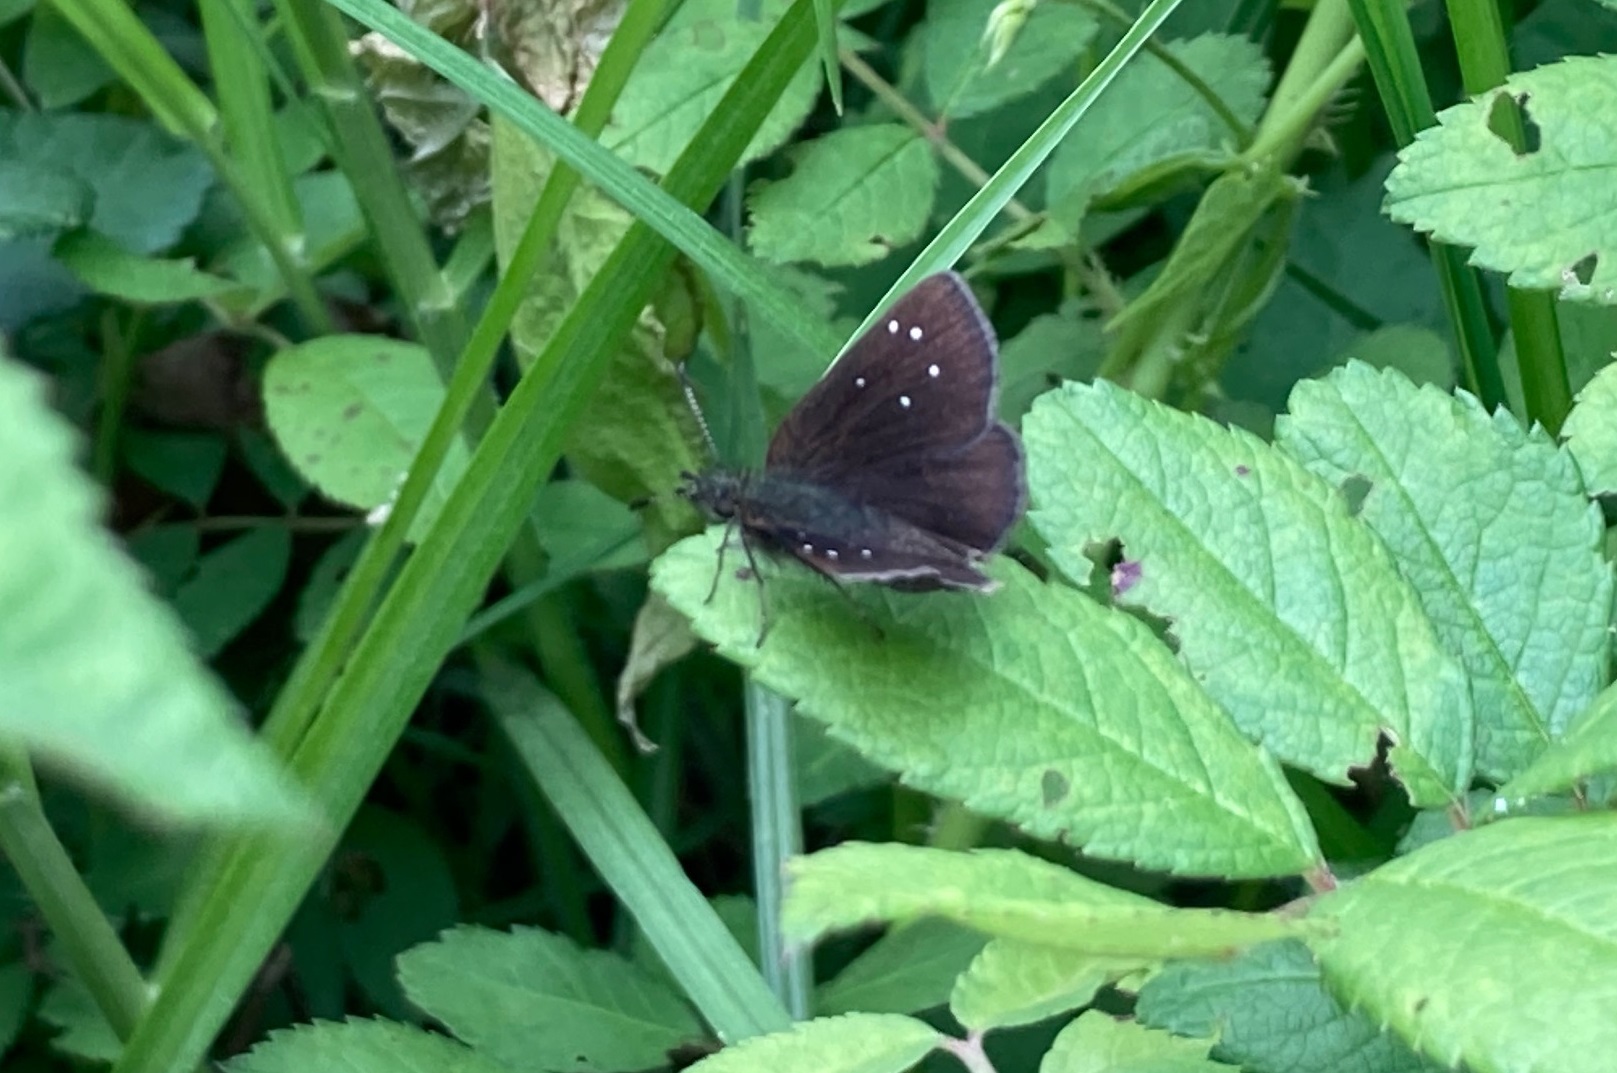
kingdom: Animalia
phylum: Arthropoda
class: Insecta
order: Lepidoptera
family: Hesperiidae
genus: Piruna
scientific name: Piruna brunnea
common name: Chocolate skipperling
